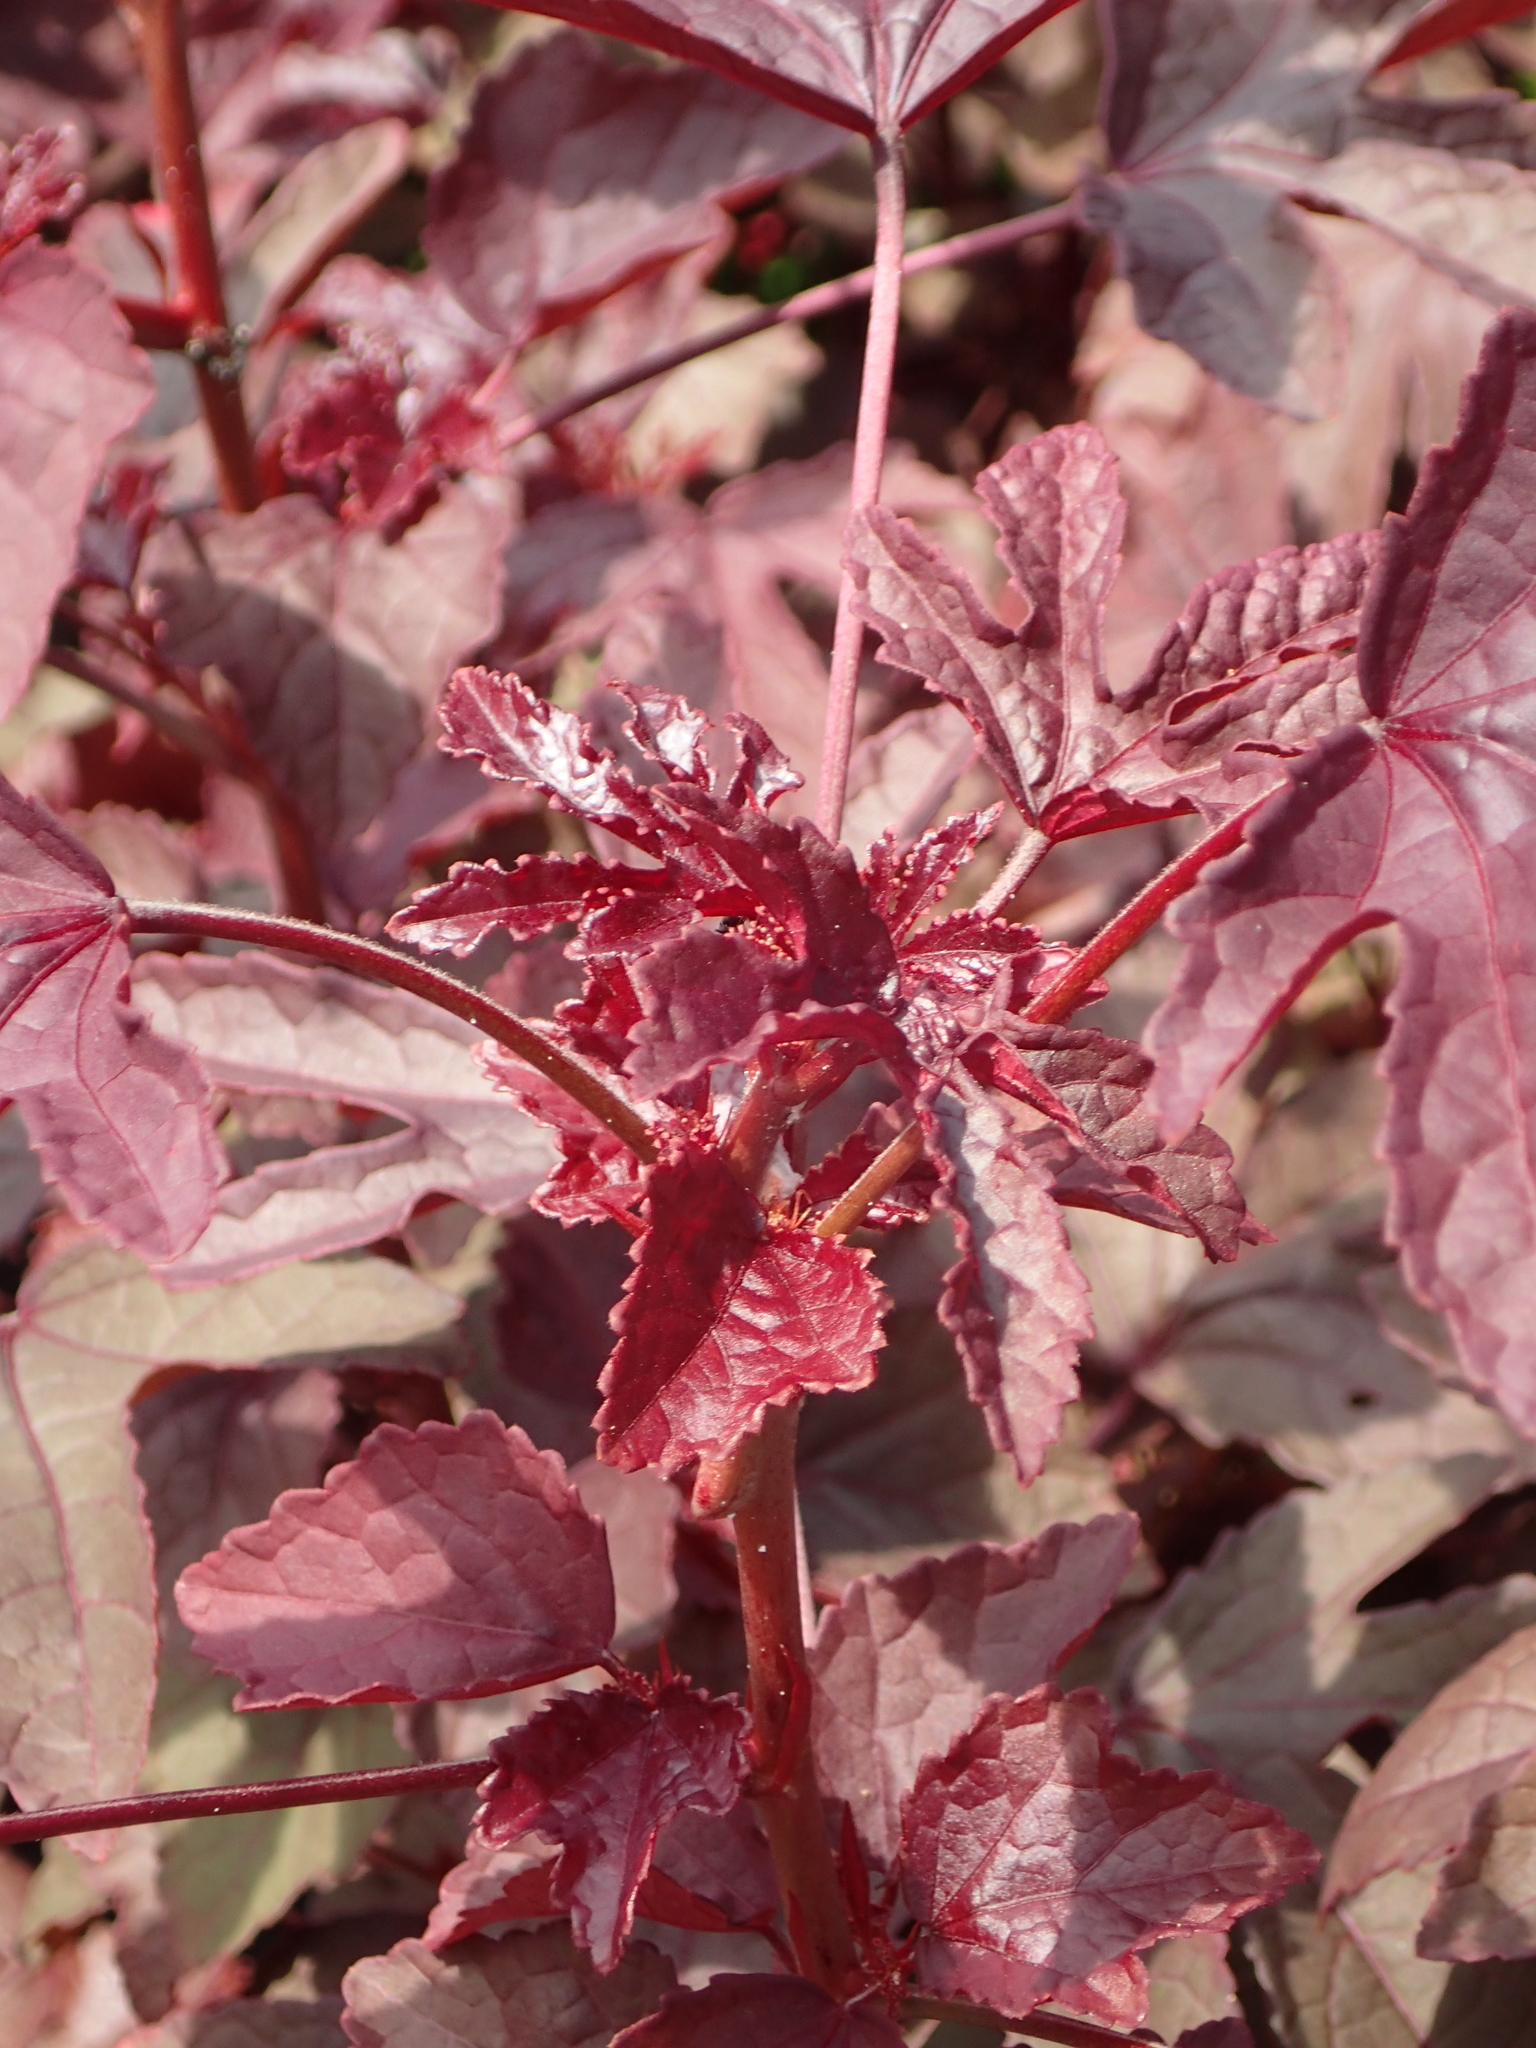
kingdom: Plantae
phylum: Tracheophyta
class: Magnoliopsida
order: Malpighiales
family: Euphorbiaceae
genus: Jatropha
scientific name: Jatropha gossypiifolia
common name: Bellyache bush
